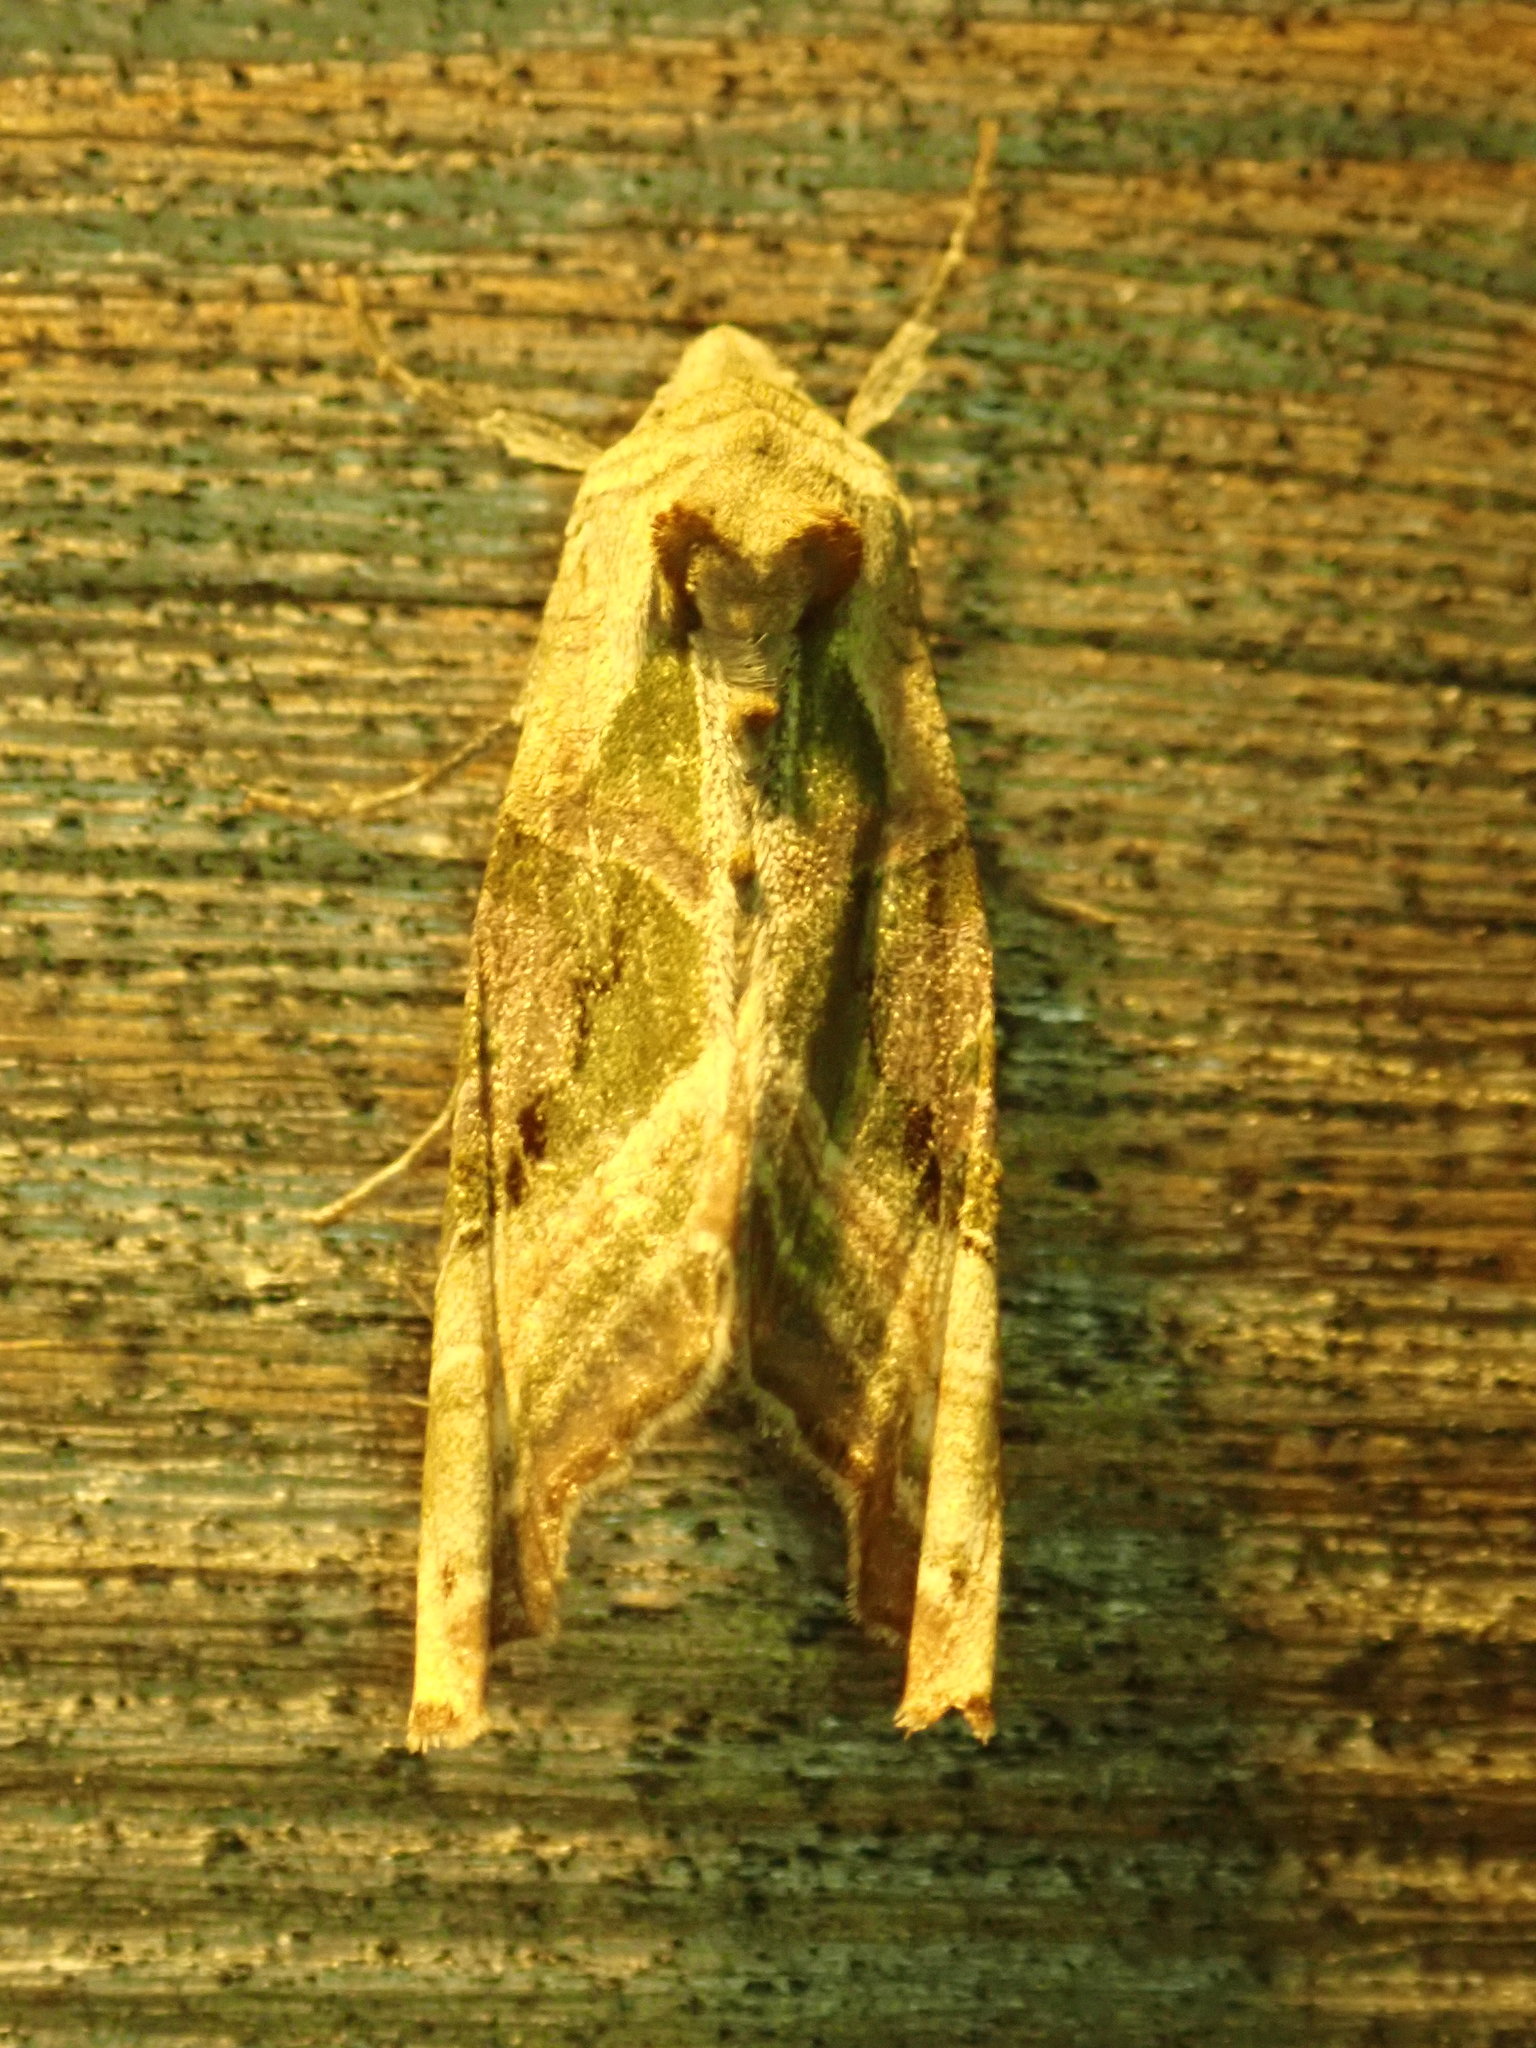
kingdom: Animalia
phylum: Arthropoda
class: Insecta
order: Lepidoptera
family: Noctuidae
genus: Phlogophora
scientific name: Phlogophora periculosa
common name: Brown angle shades
